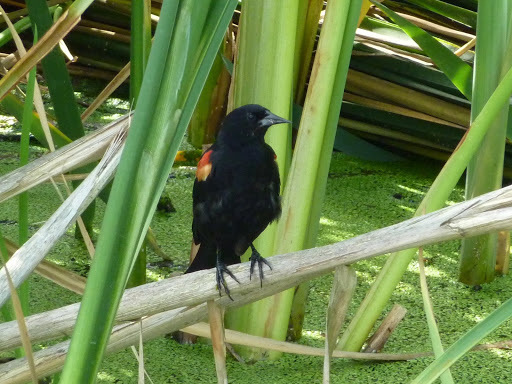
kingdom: Animalia
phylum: Chordata
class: Aves
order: Passeriformes
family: Icteridae
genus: Agelaius
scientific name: Agelaius phoeniceus
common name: Red-winged blackbird
